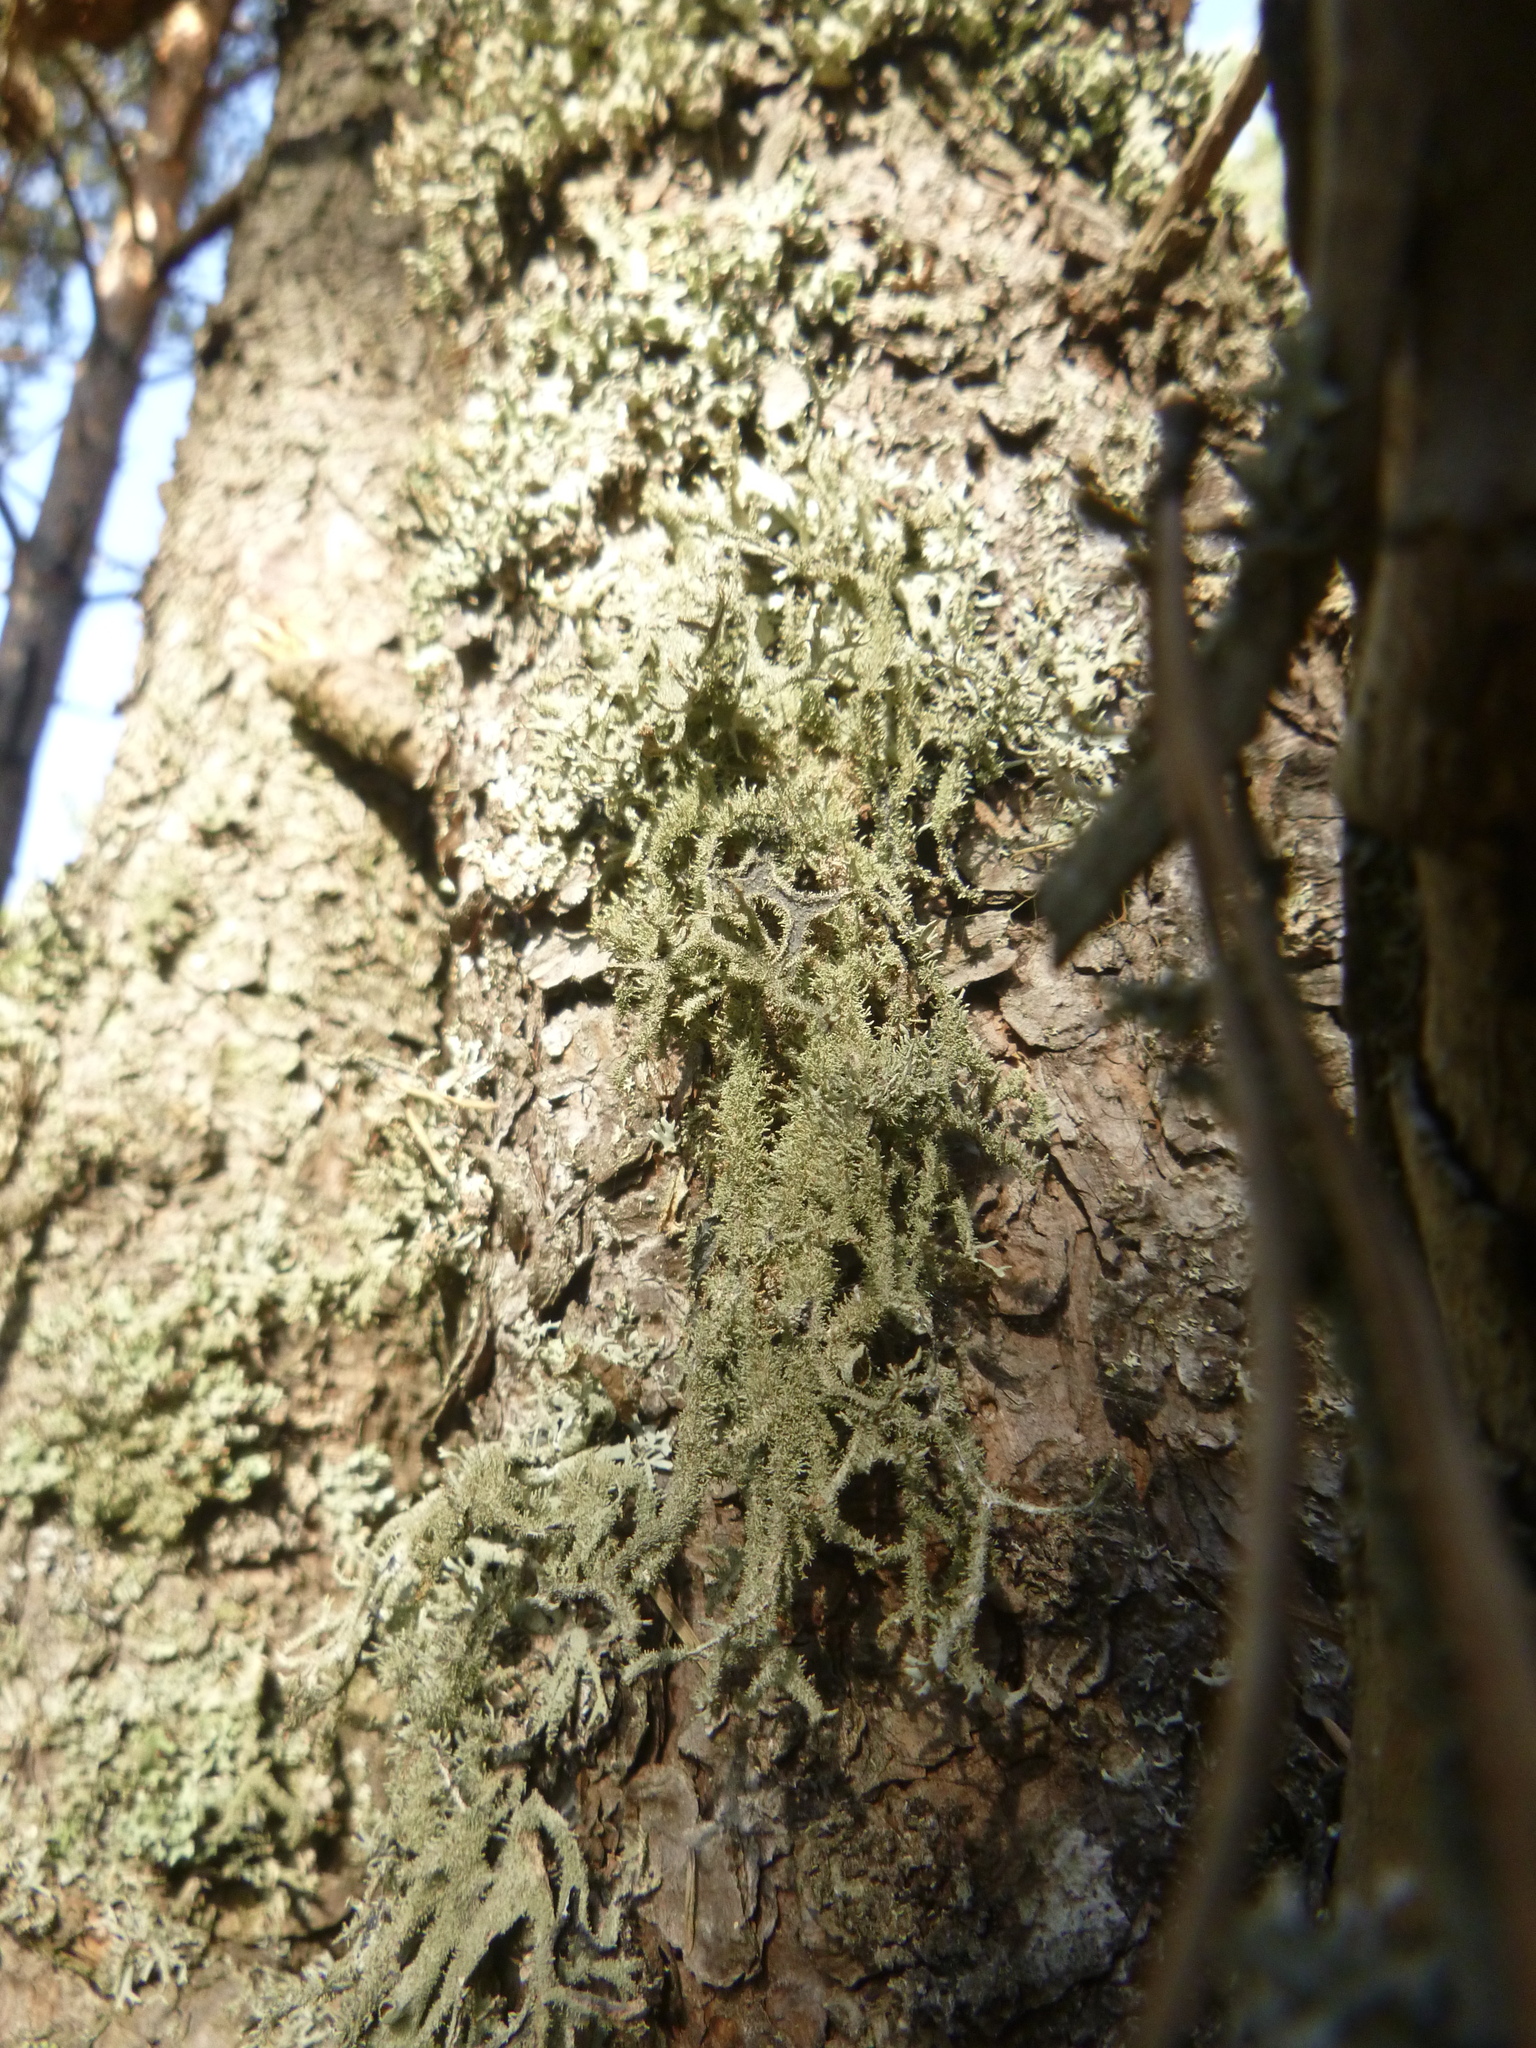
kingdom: Fungi
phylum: Ascomycota
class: Lecanoromycetes
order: Lecanorales
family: Parmeliaceae
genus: Pseudevernia
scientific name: Pseudevernia furfuracea
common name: Tree moss
